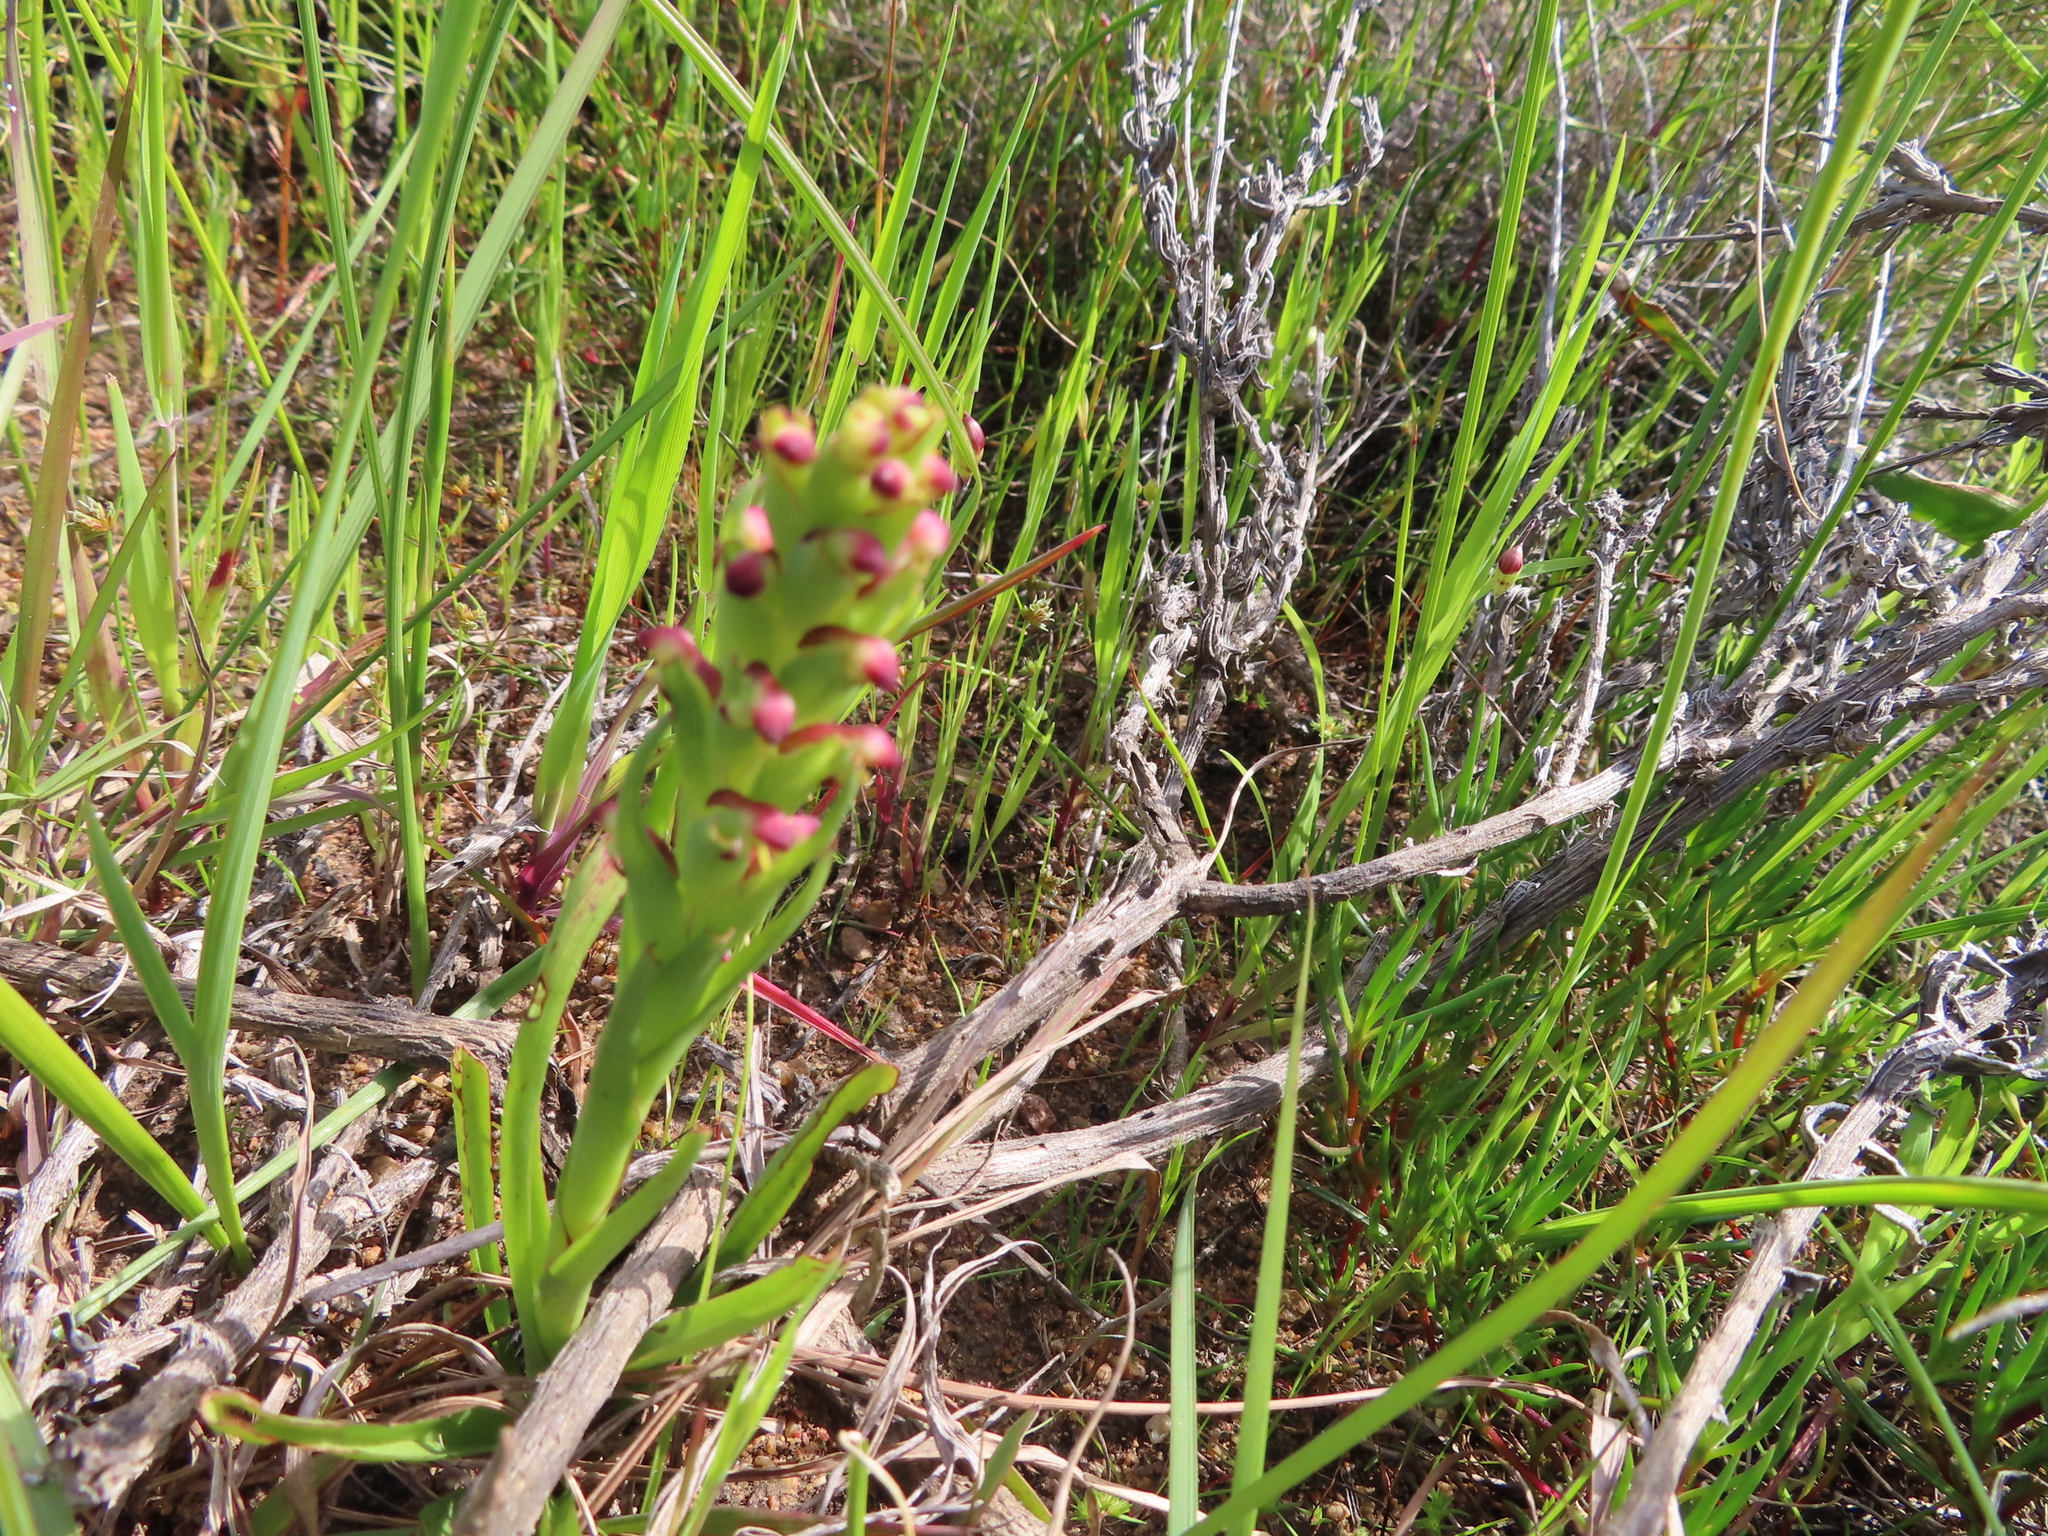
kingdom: Plantae
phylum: Tracheophyta
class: Liliopsida
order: Asparagales
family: Orchidaceae
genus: Disa
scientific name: Disa bracteata
